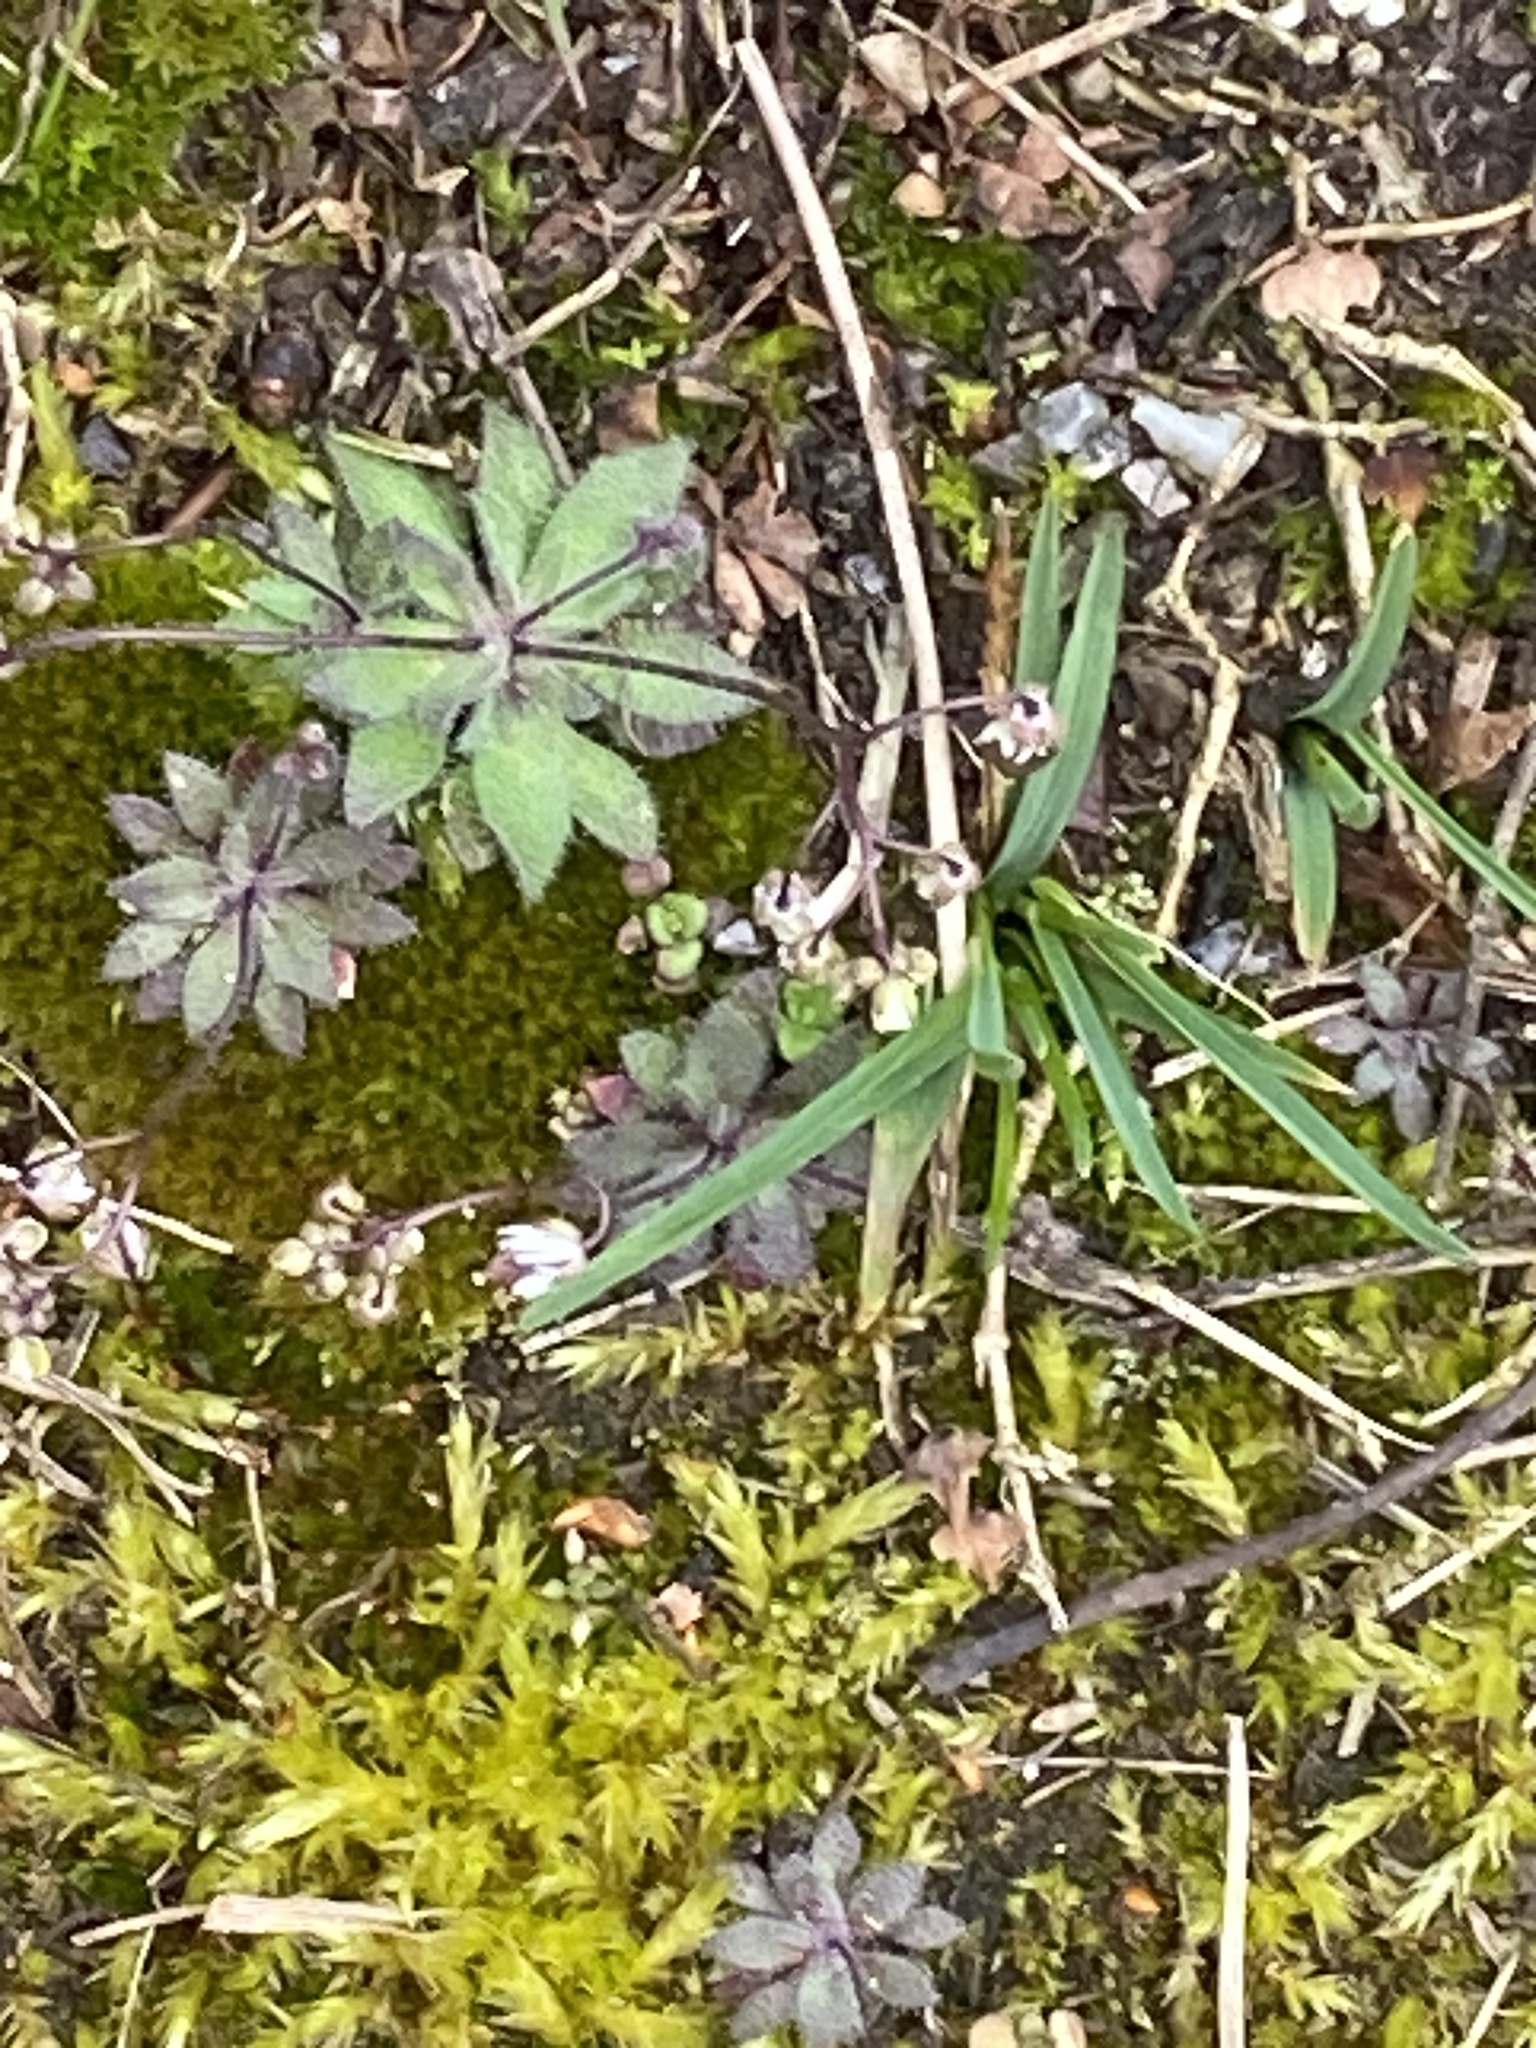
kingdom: Plantae
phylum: Tracheophyta
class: Magnoliopsida
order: Brassicales
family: Brassicaceae
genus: Draba
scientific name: Draba verna
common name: Spring draba
